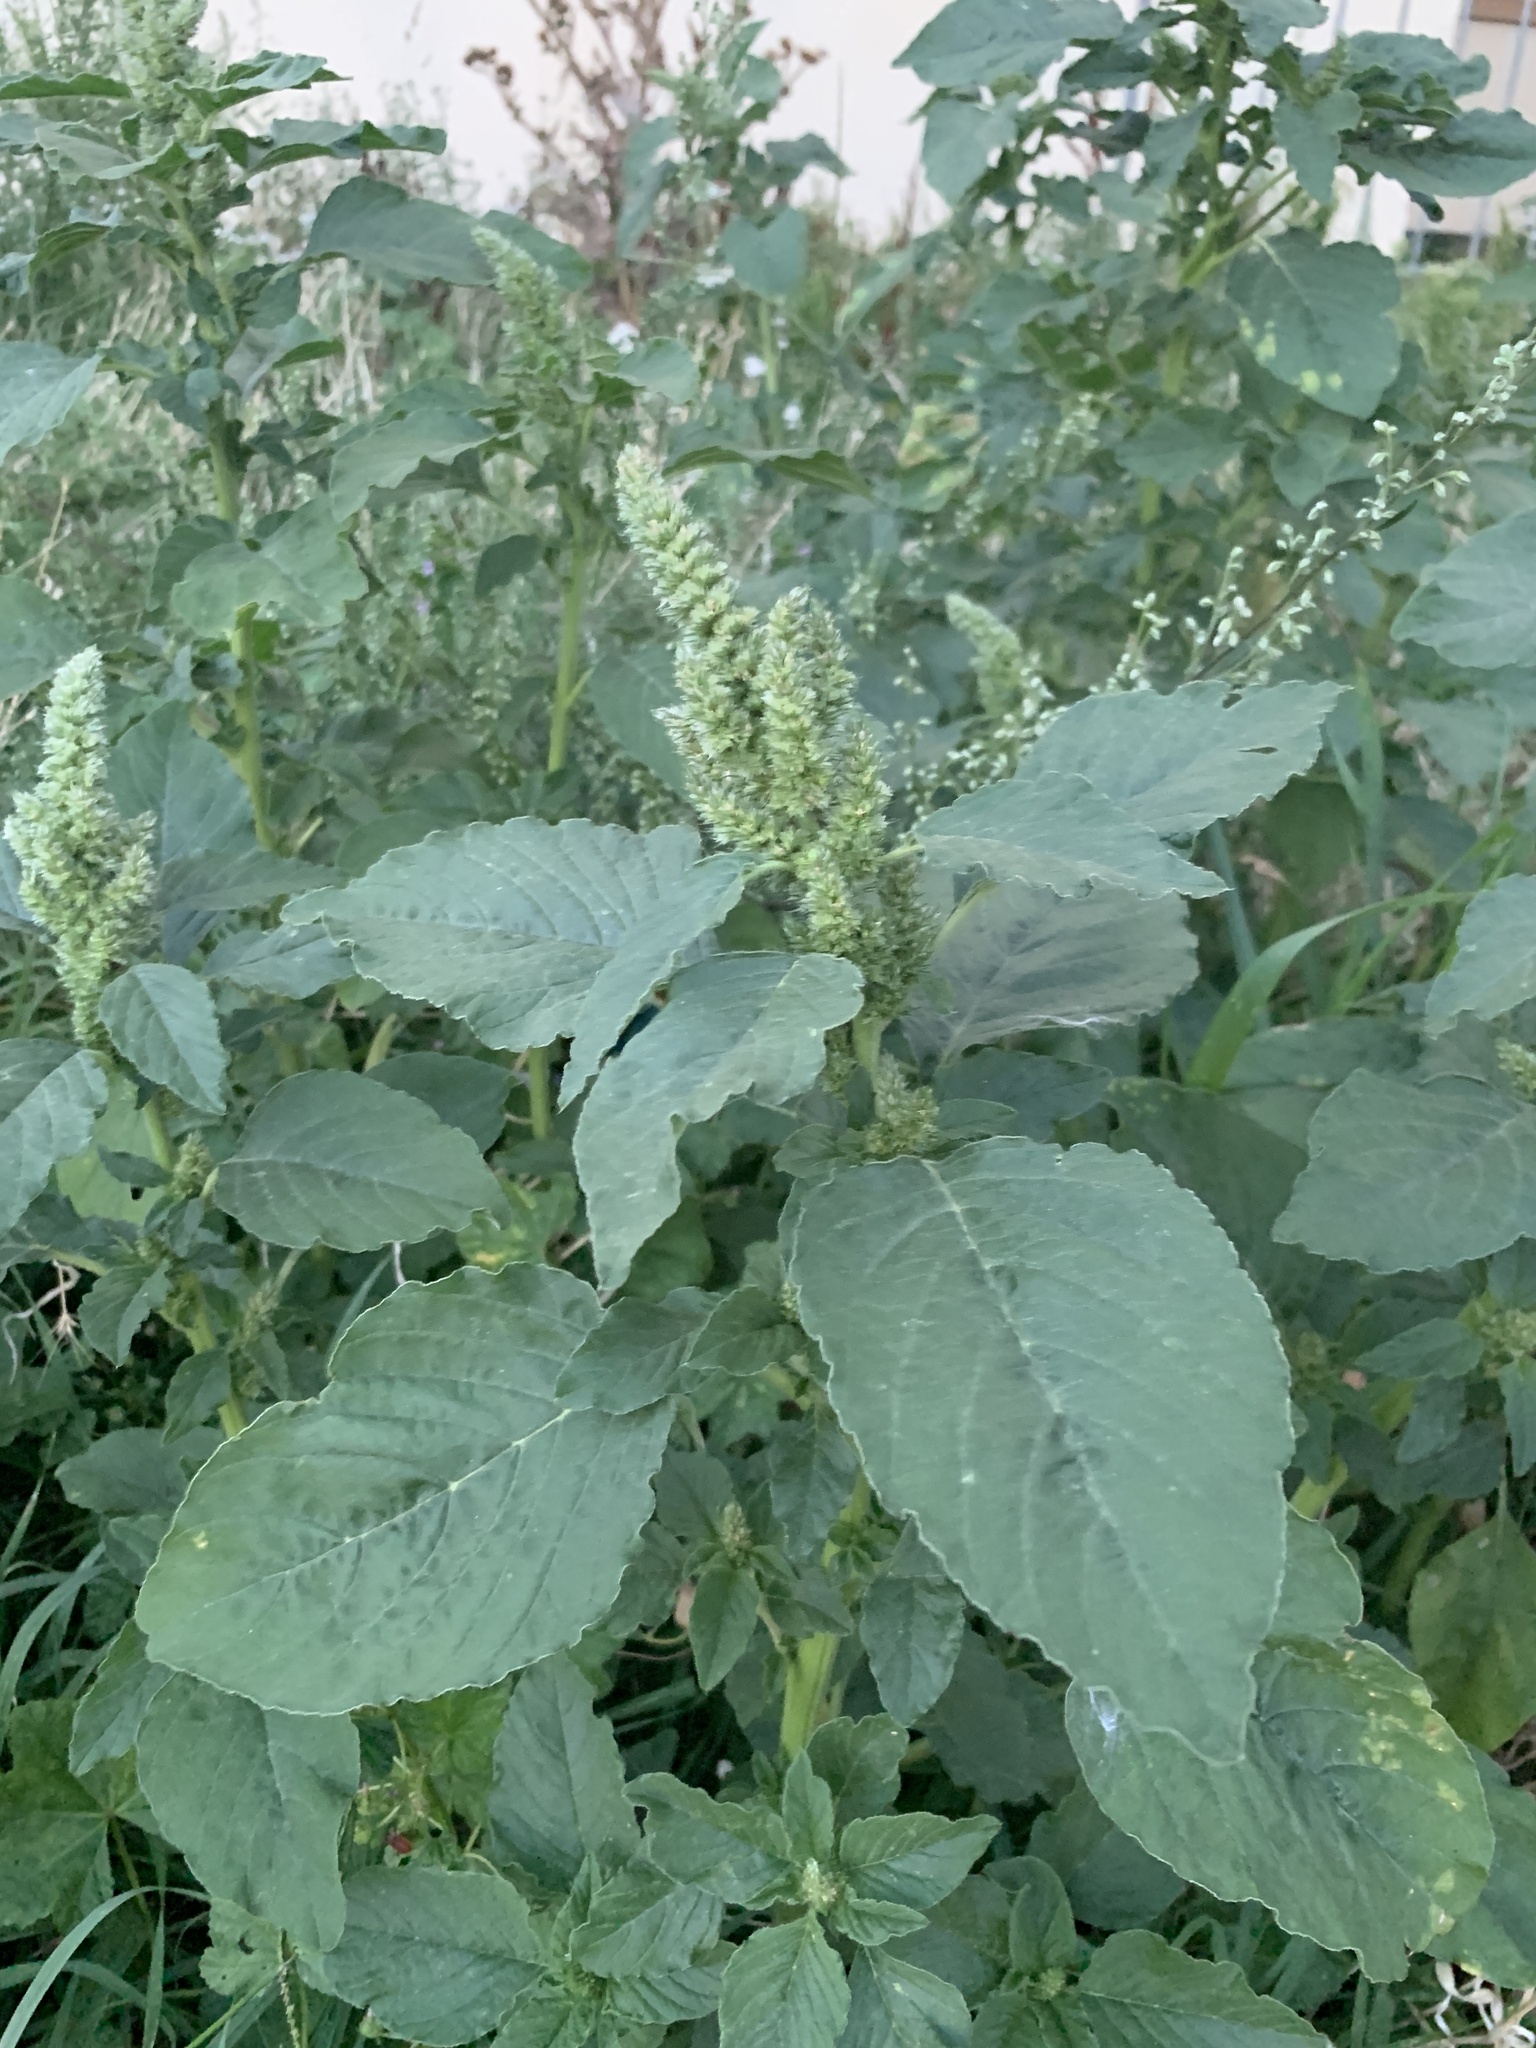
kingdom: Plantae
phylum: Tracheophyta
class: Magnoliopsida
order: Caryophyllales
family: Amaranthaceae
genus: Amaranthus
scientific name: Amaranthus retroflexus
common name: Redroot amaranth
